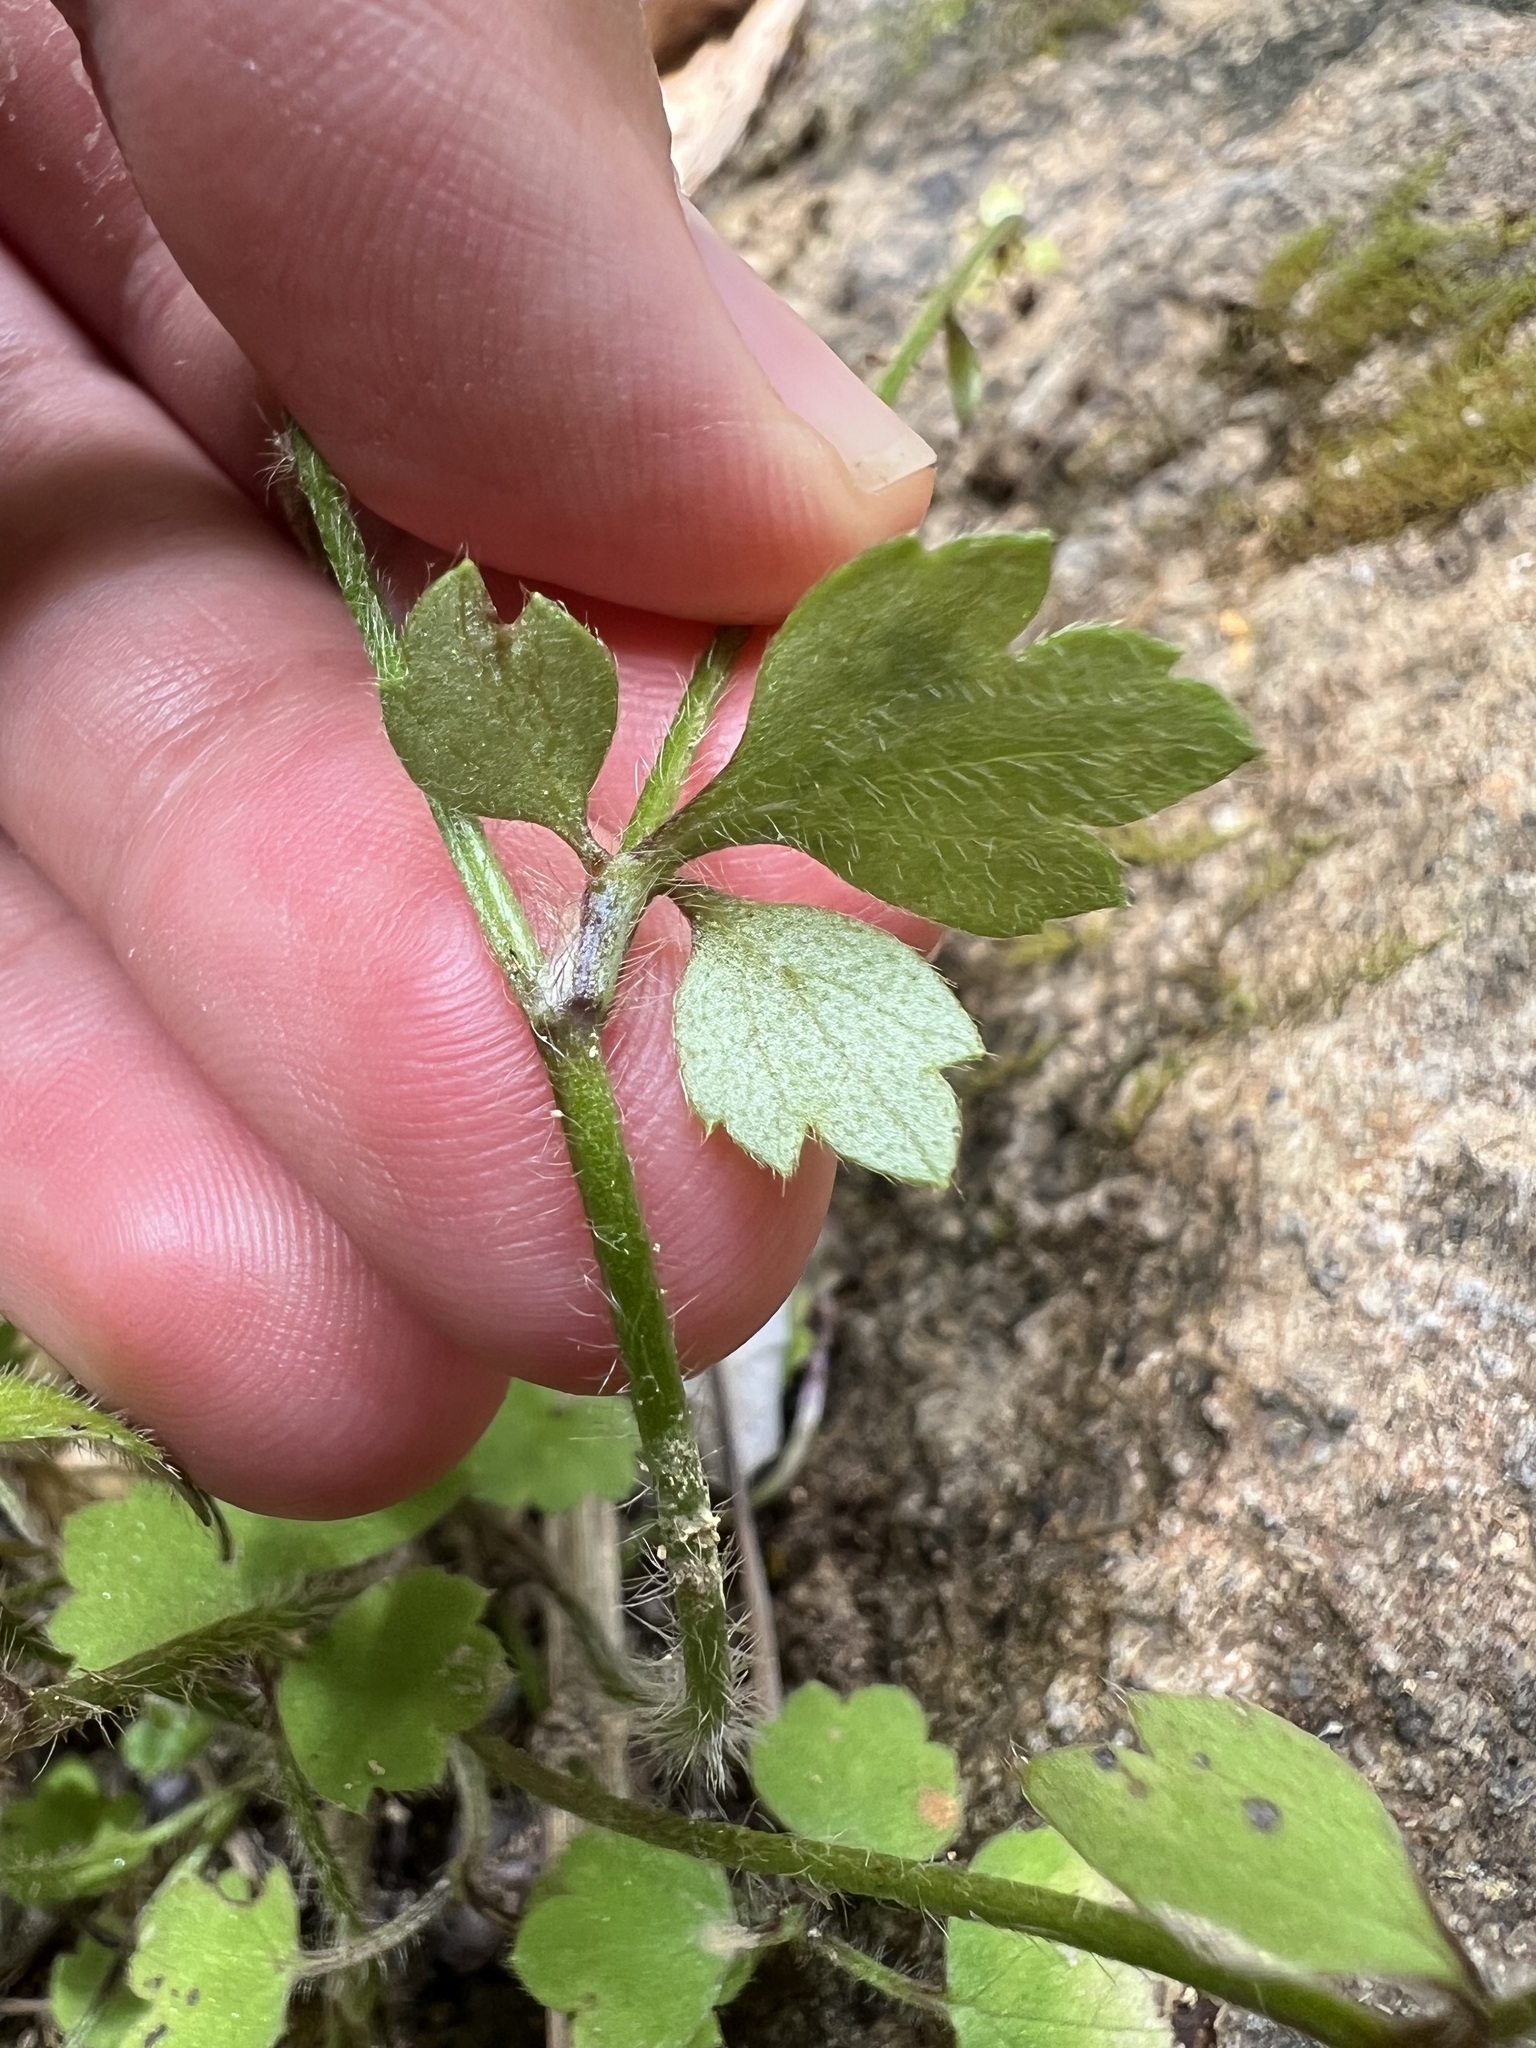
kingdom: Plantae
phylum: Tracheophyta
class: Magnoliopsida
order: Ranunculales
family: Ranunculaceae
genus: Ranunculus
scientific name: Ranunculus reflexus
